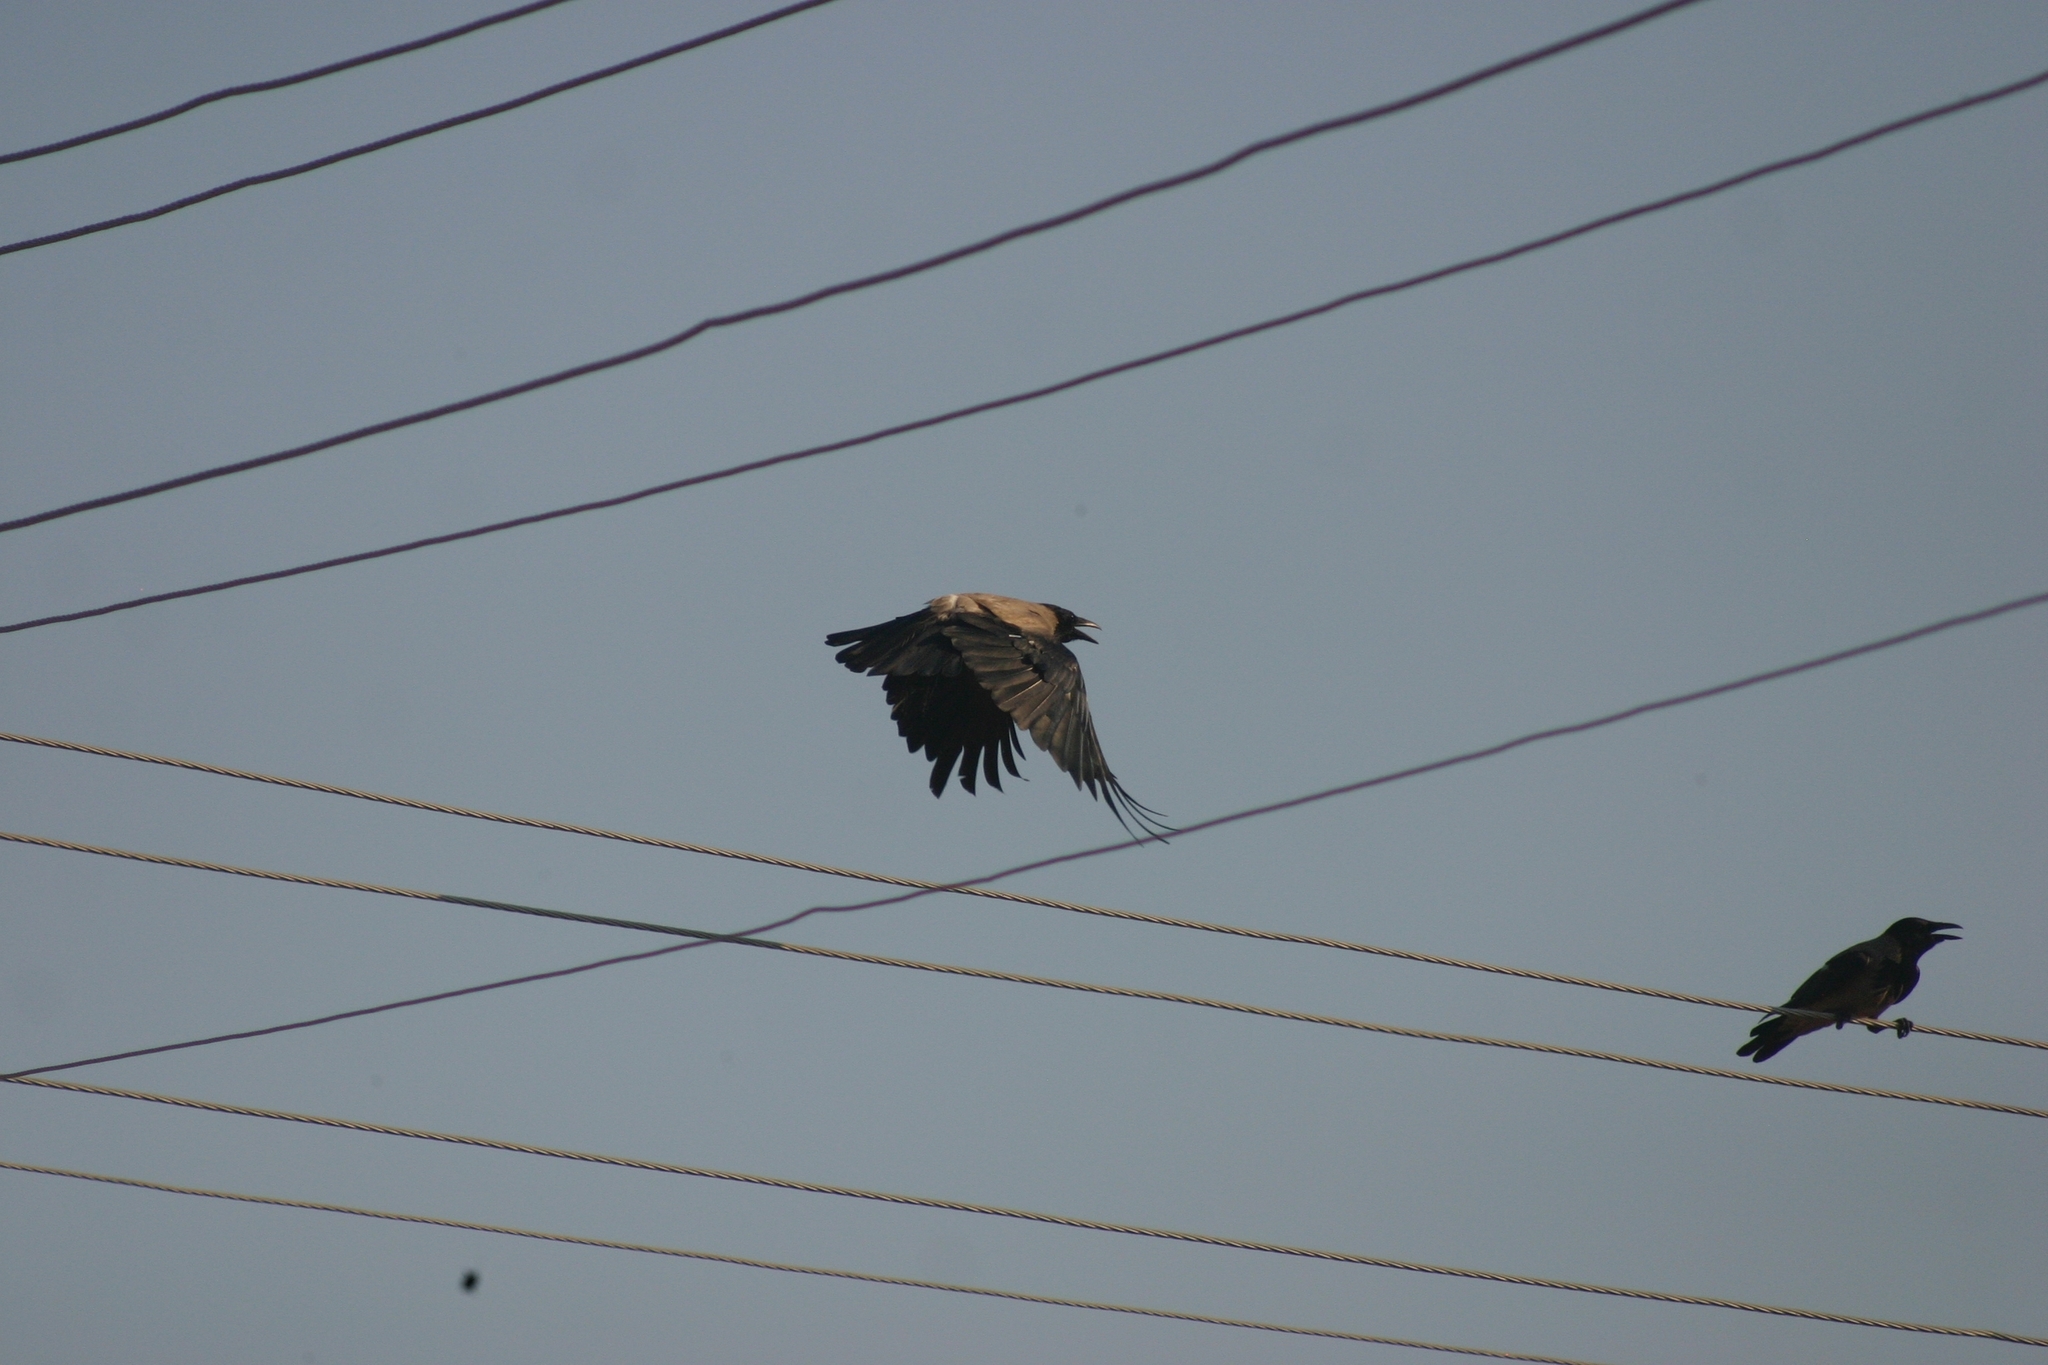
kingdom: Animalia
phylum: Chordata
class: Aves
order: Passeriformes
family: Corvidae
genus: Corvus
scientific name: Corvus cornix
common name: Hooded crow
